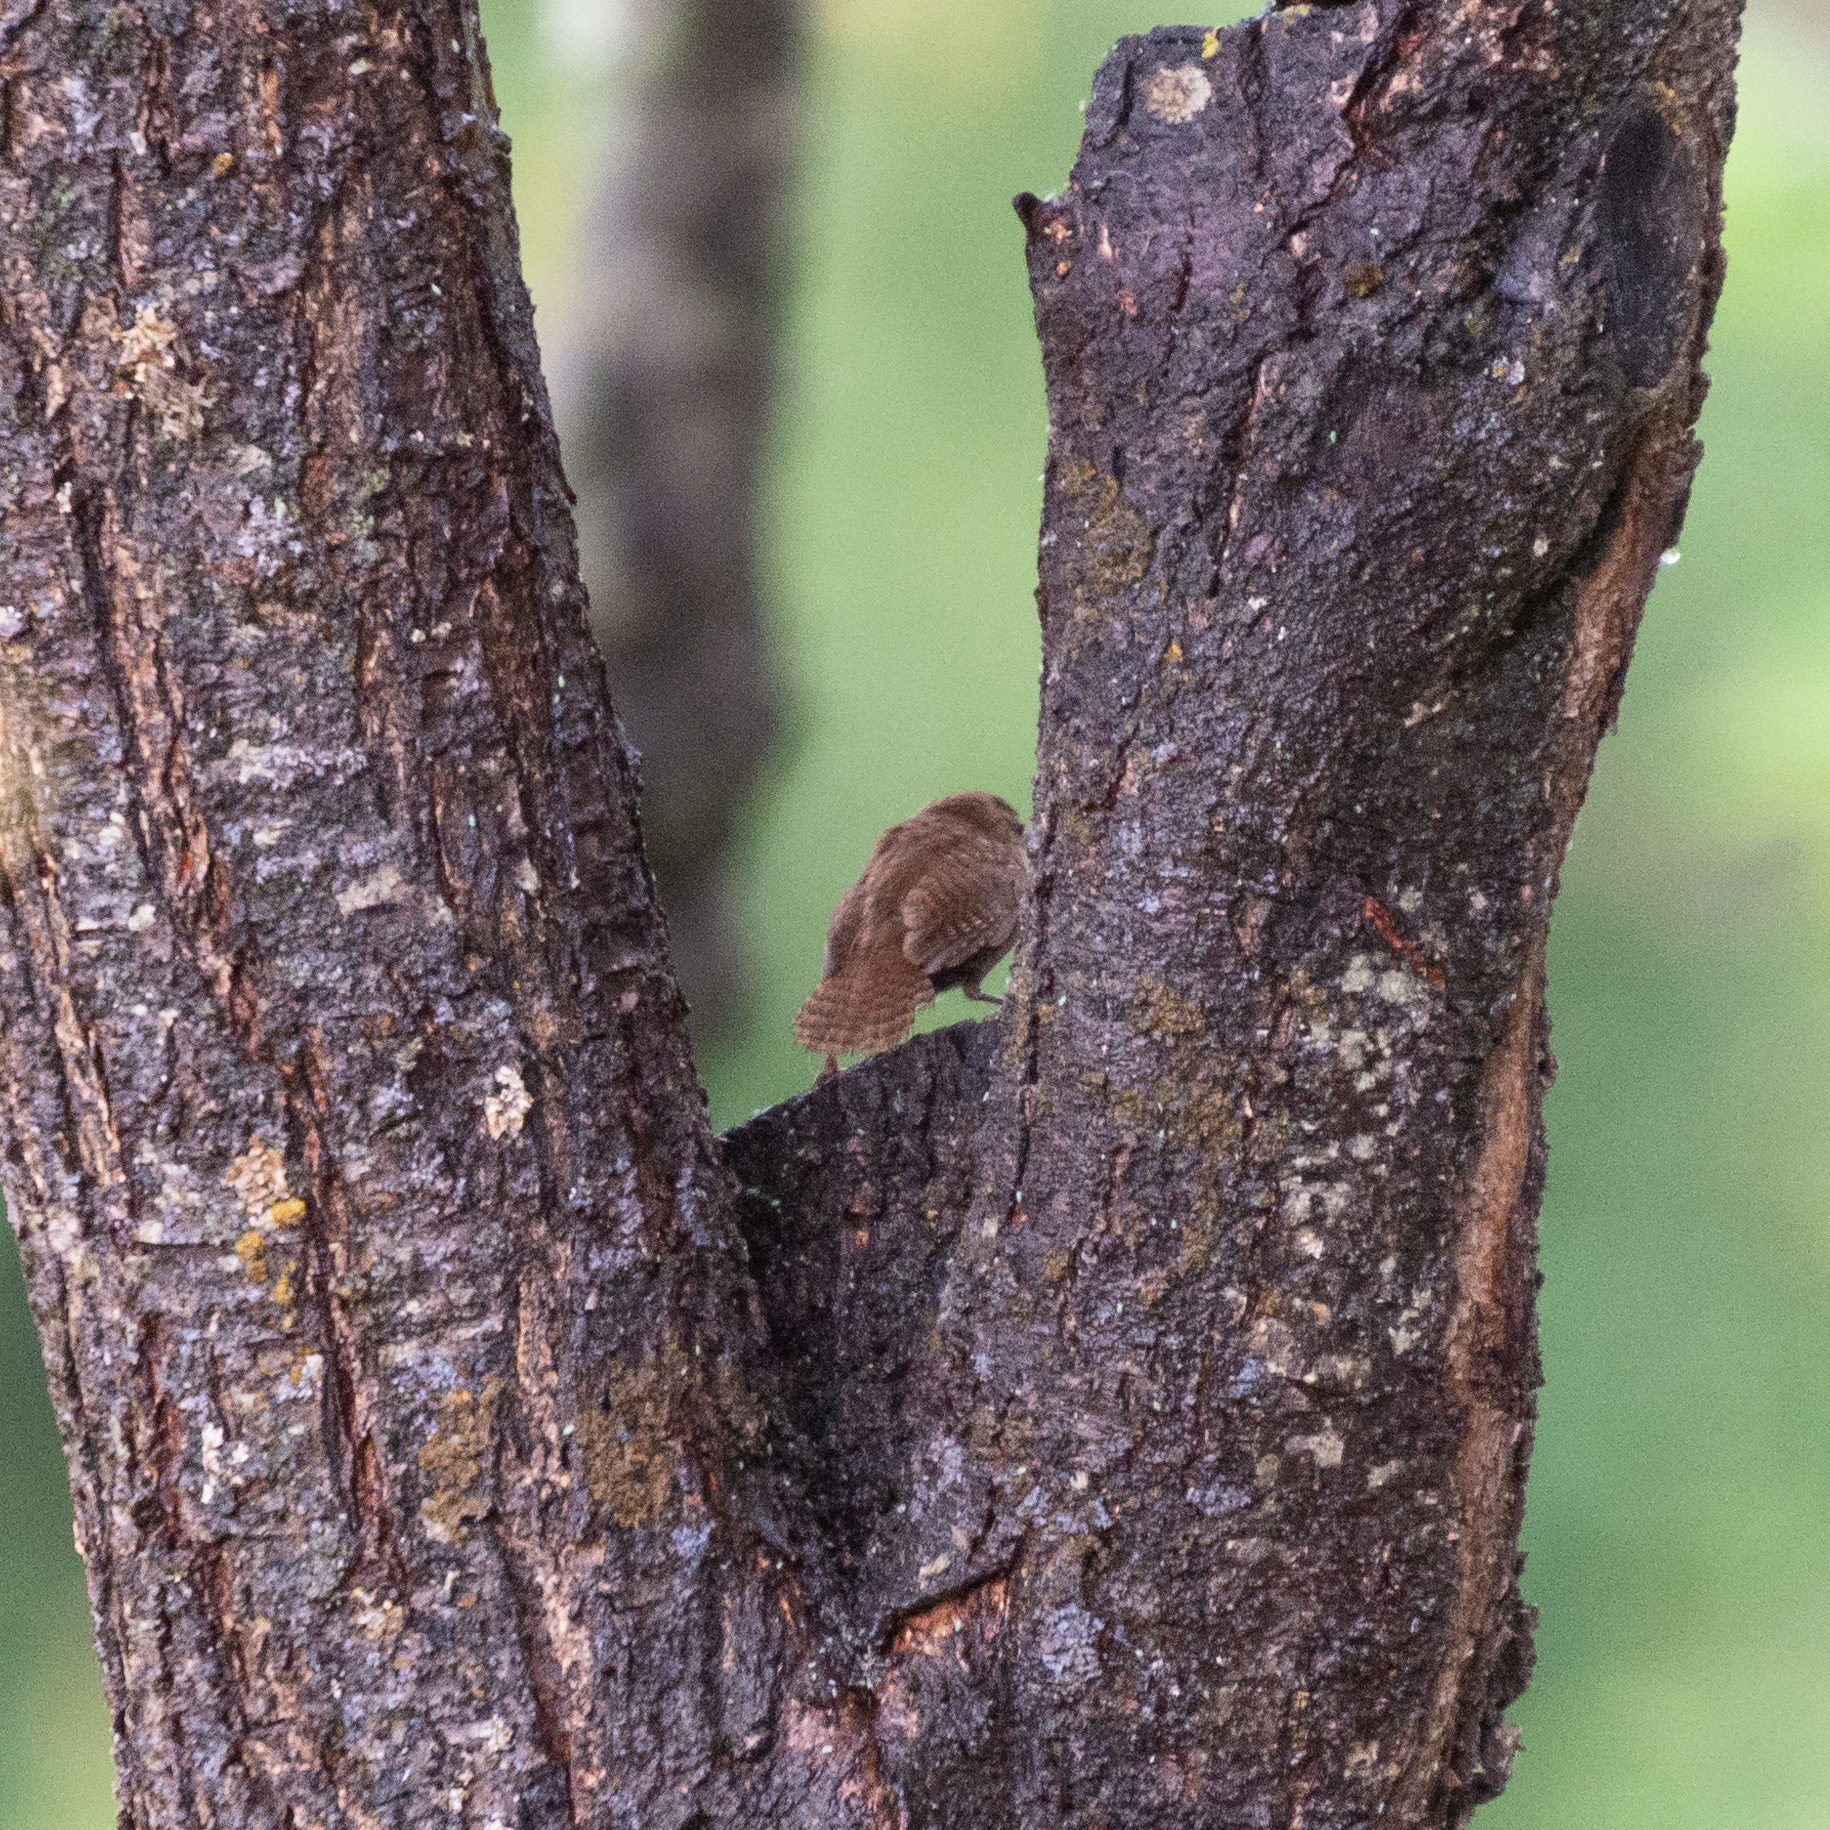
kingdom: Animalia
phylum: Chordata
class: Aves
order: Passeriformes
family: Troglodytidae
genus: Troglodytes
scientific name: Troglodytes troglodytes
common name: Eurasian wren
